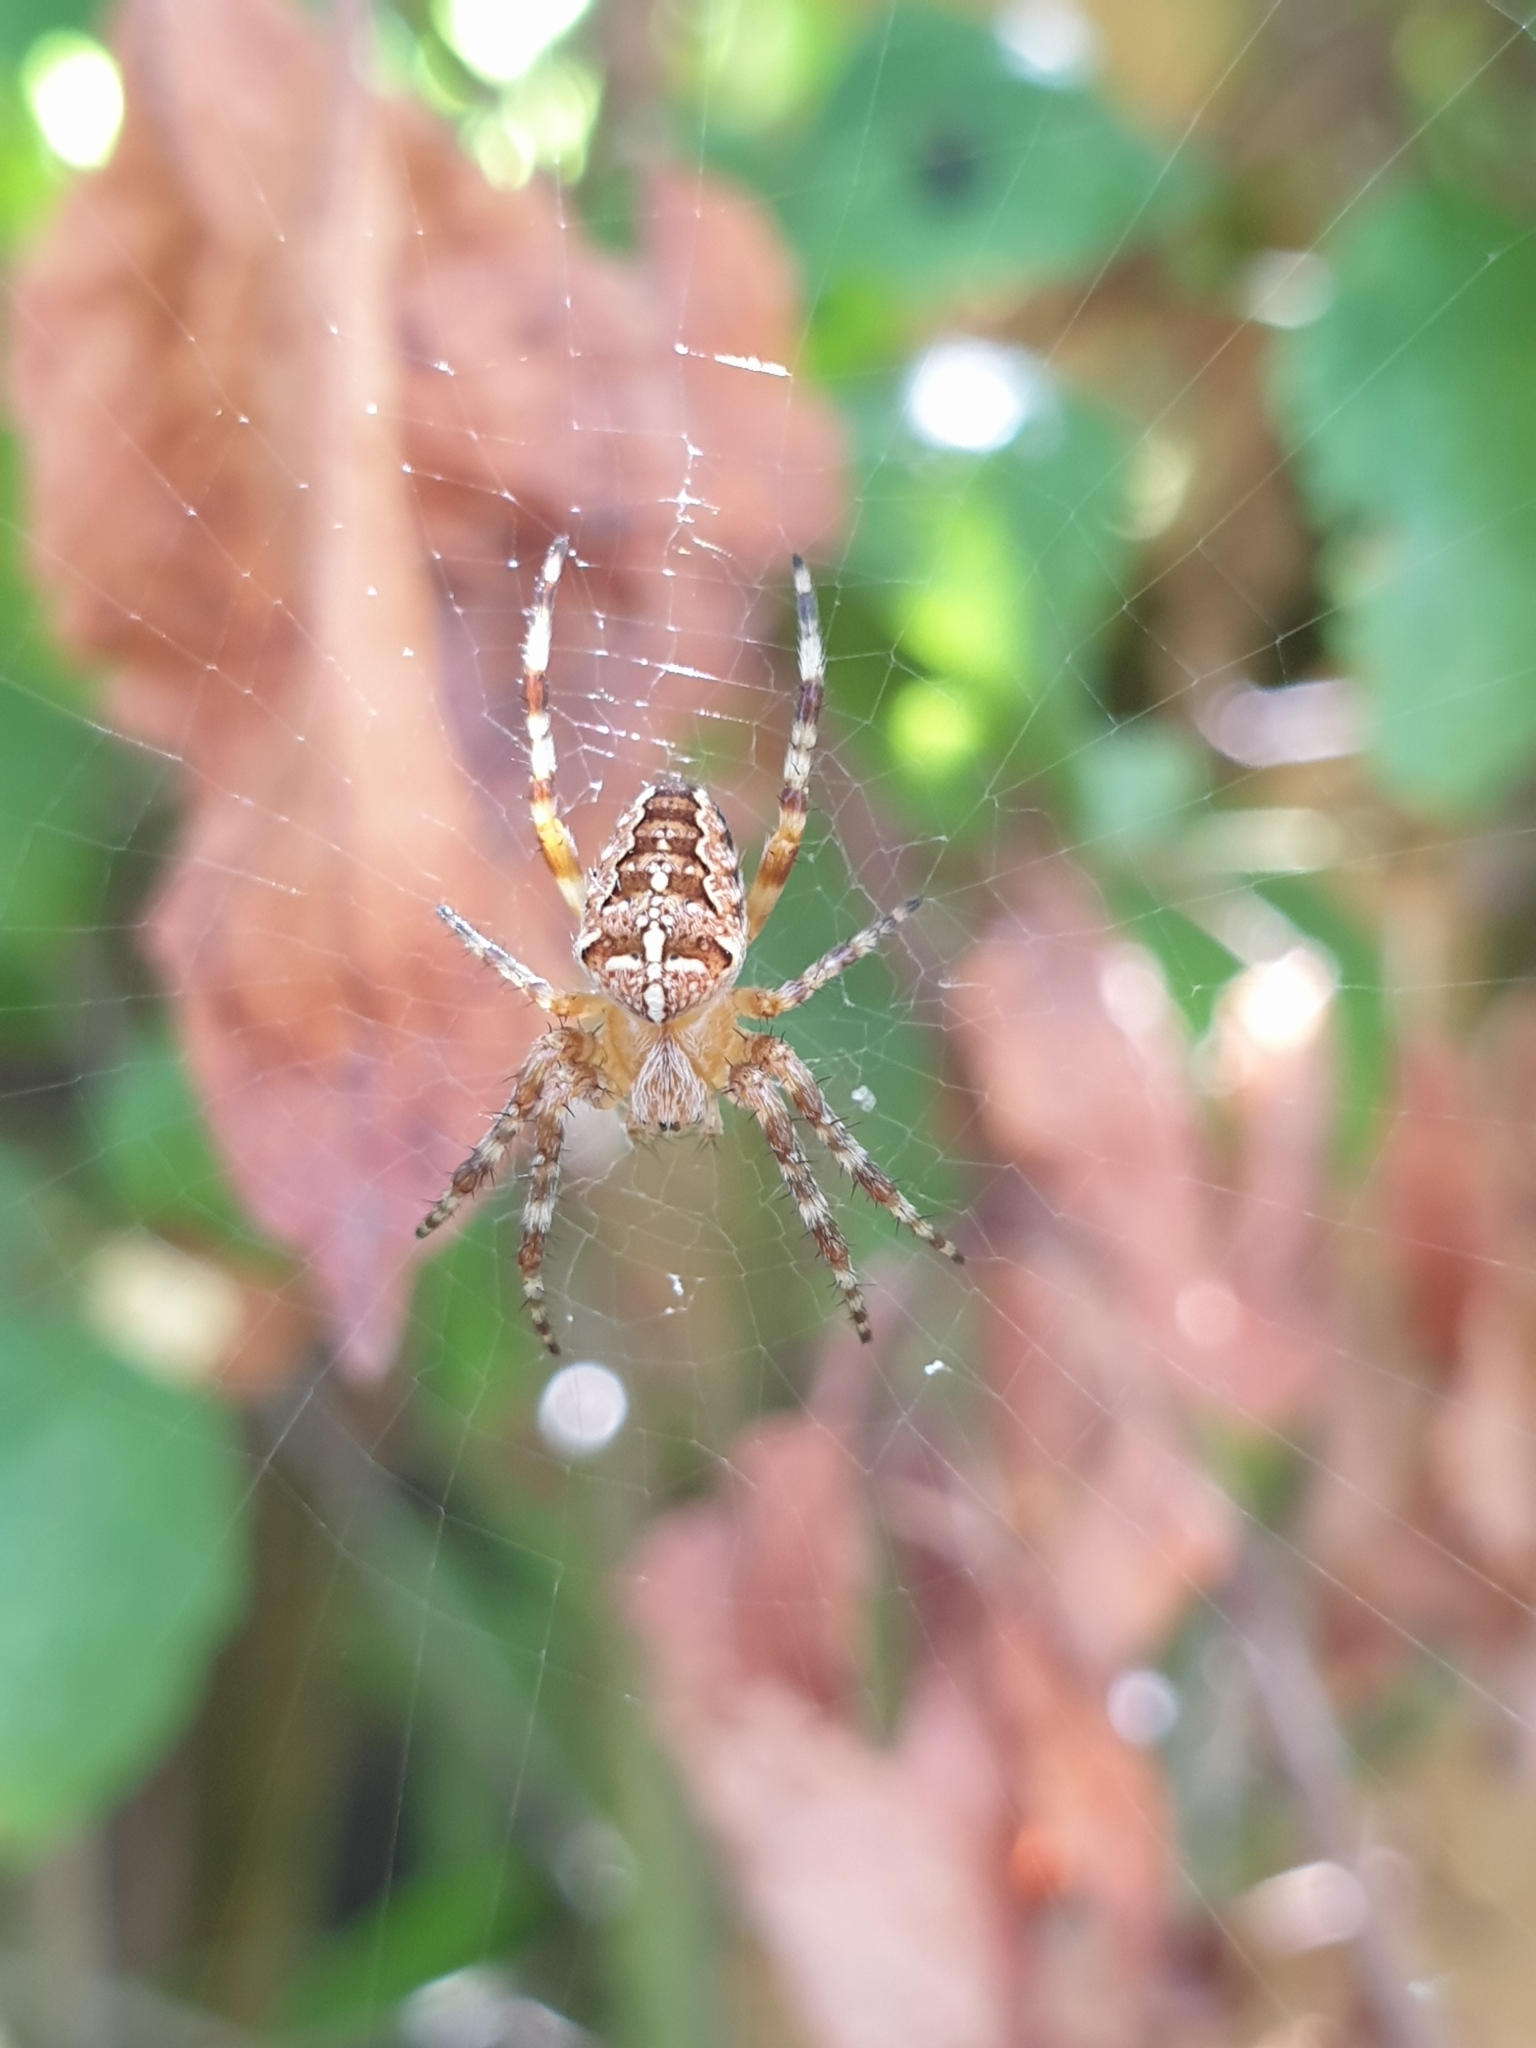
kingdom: Animalia
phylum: Arthropoda
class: Arachnida
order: Araneae
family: Araneidae
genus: Araneus
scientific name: Araneus diadematus
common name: Cross orbweaver
